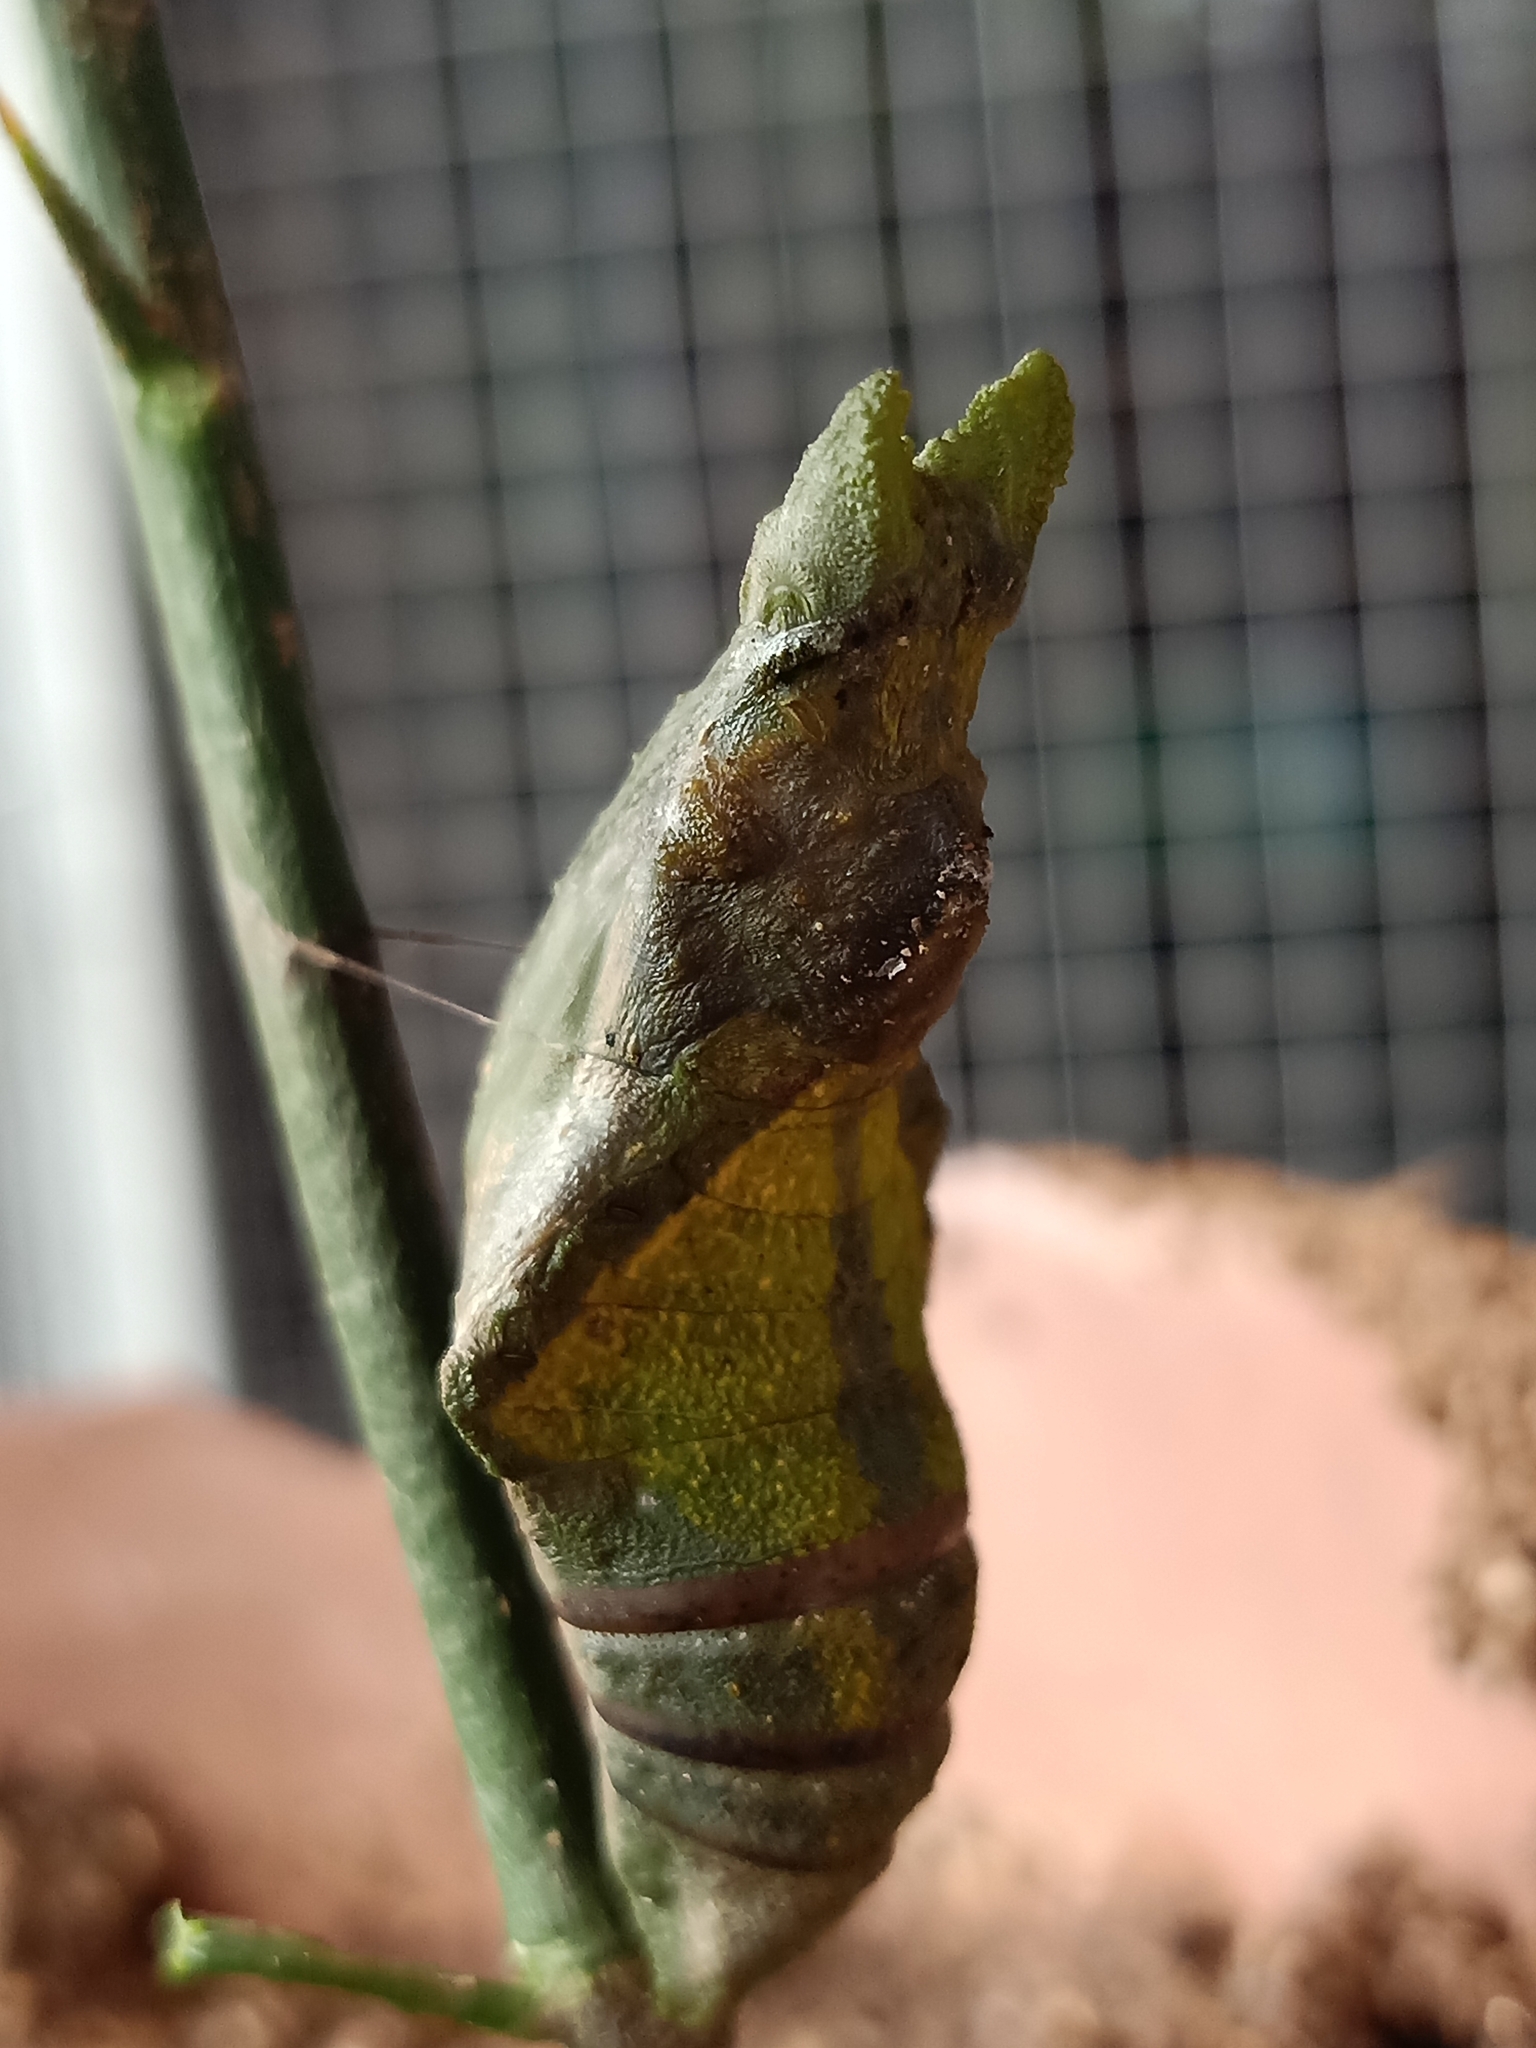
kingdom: Animalia
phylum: Arthropoda
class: Insecta
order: Lepidoptera
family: Papilionidae
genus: Papilio
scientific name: Papilio memnon
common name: Great mormon
